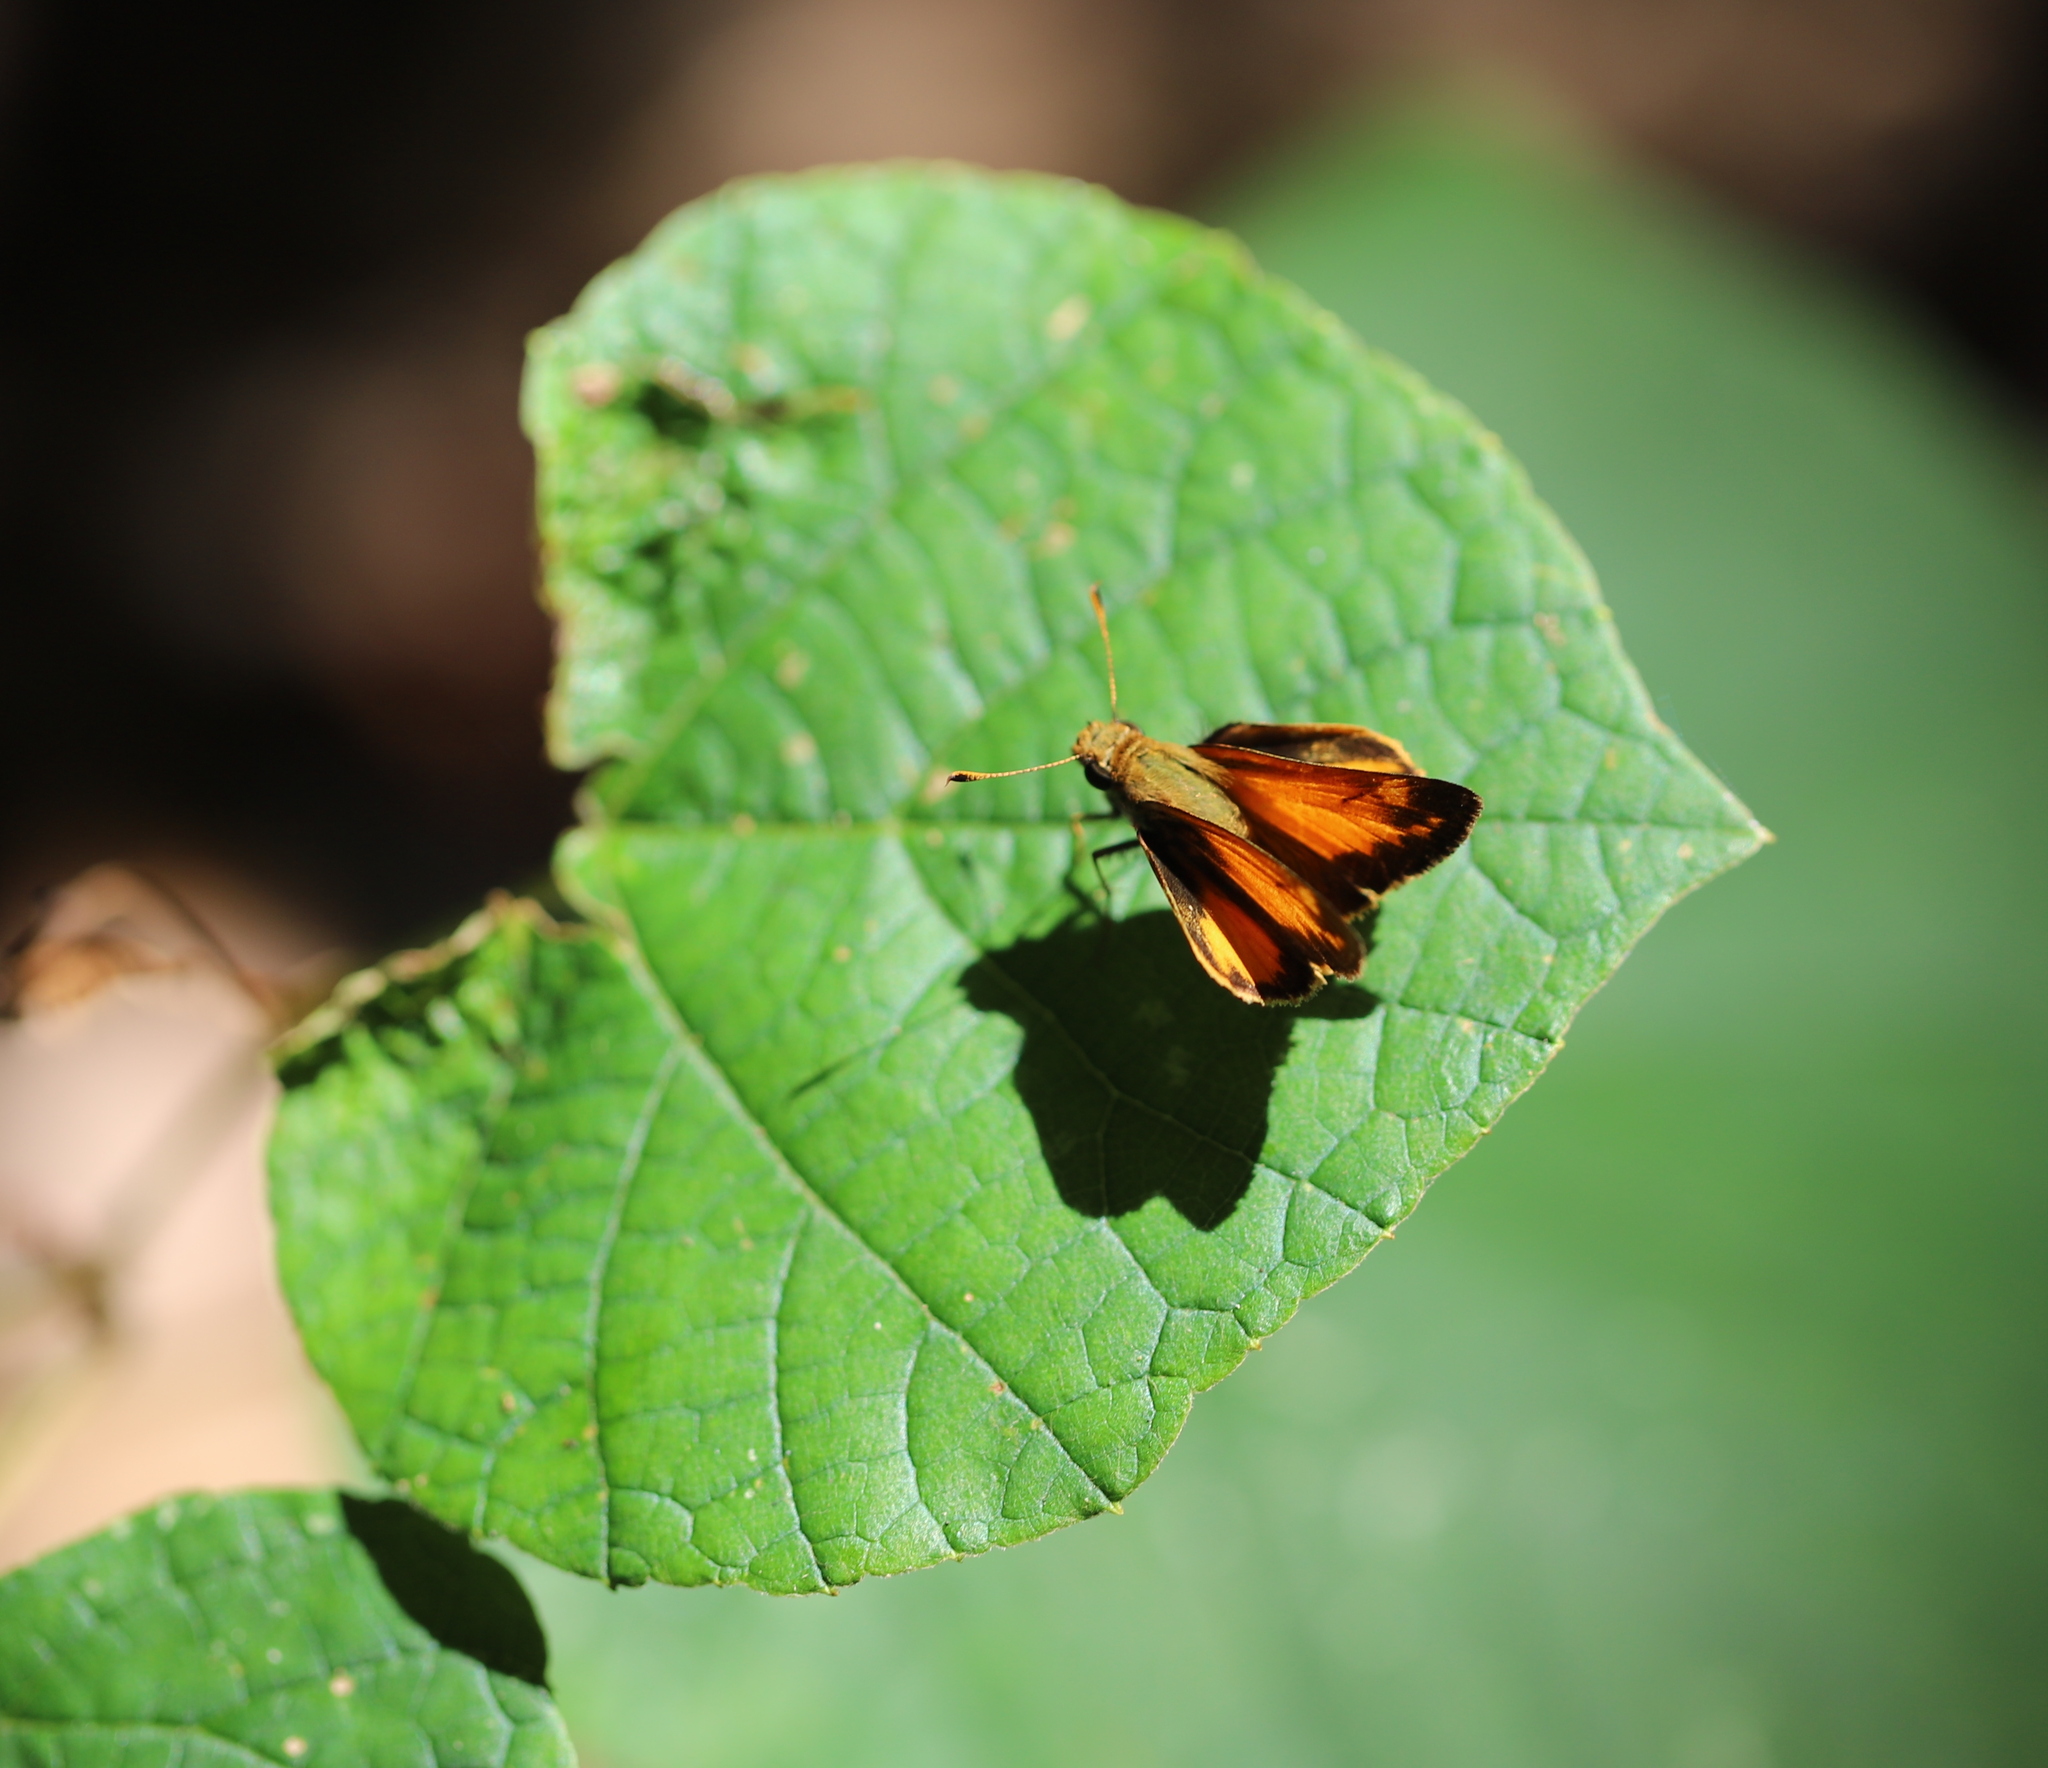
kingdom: Animalia
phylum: Arthropoda
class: Insecta
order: Lepidoptera
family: Hesperiidae
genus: Lon
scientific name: Lon zabulon
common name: Zabulon skipper
